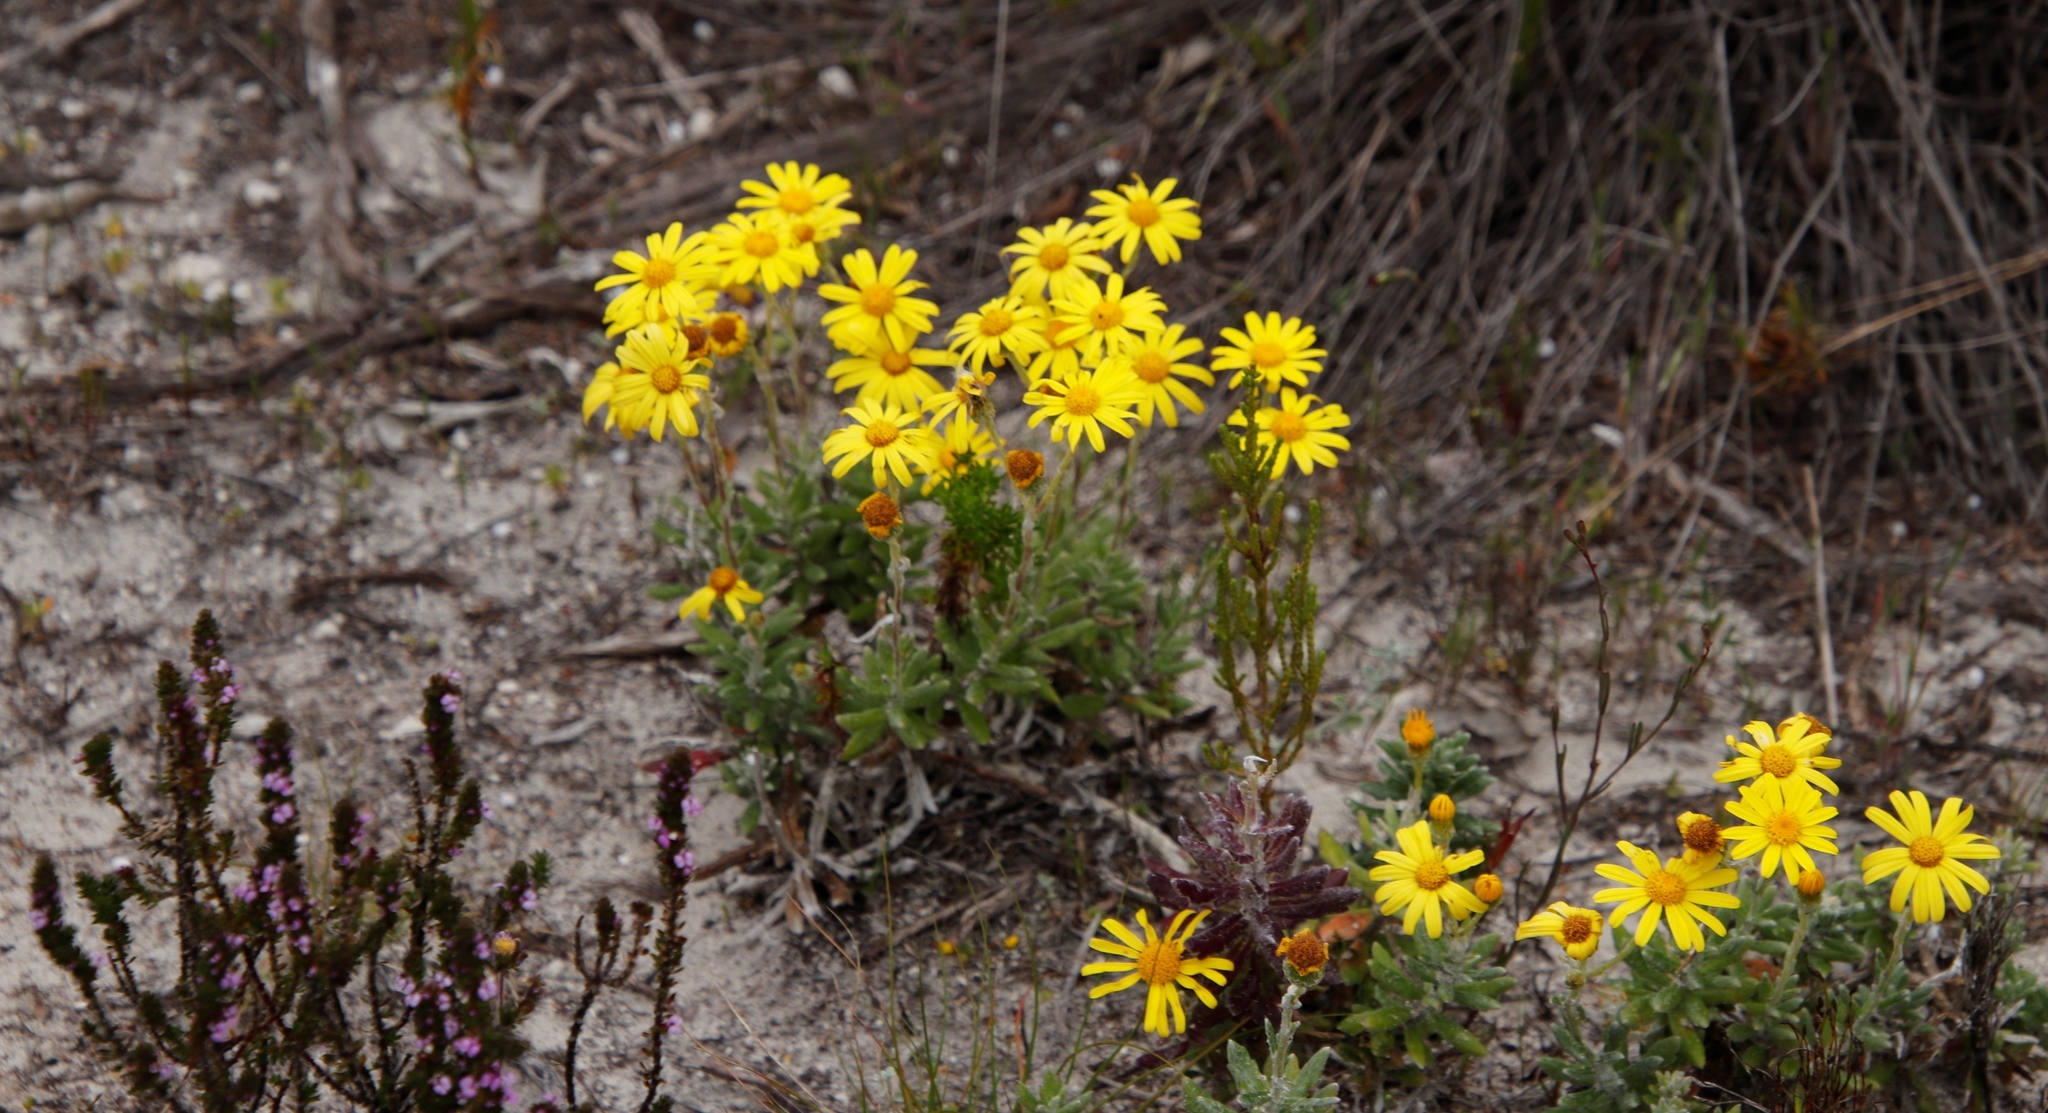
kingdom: Plantae
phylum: Tracheophyta
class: Magnoliopsida
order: Asterales
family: Asteraceae
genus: Senecio
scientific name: Senecio arniciflorus
